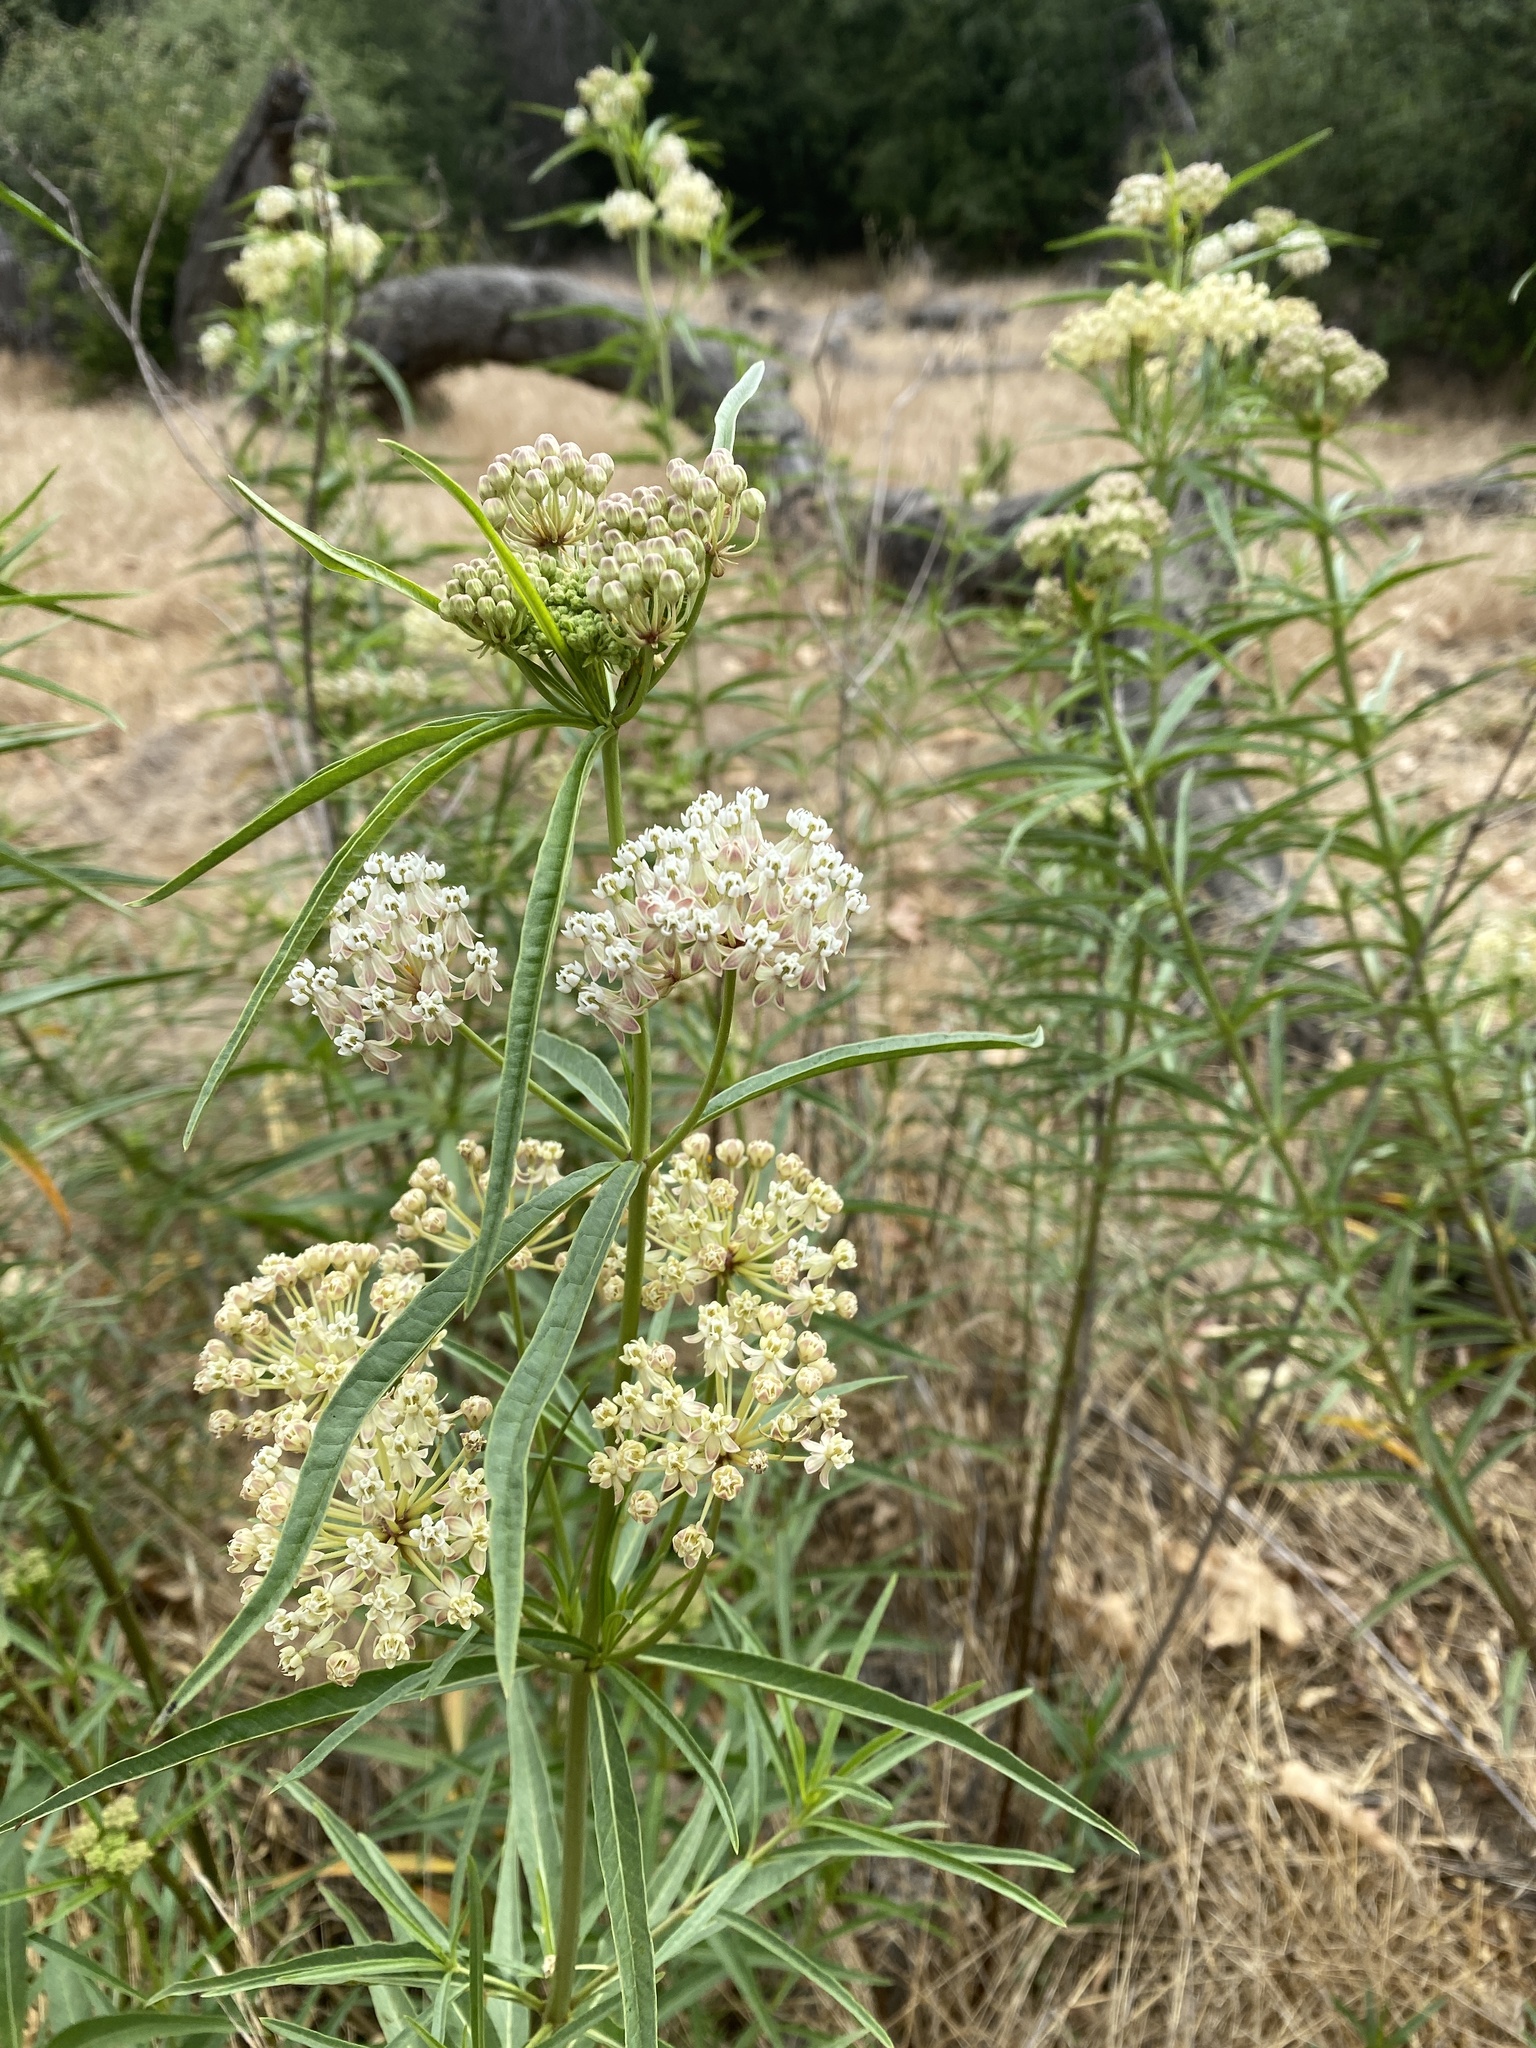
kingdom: Plantae
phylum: Tracheophyta
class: Magnoliopsida
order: Gentianales
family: Apocynaceae
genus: Asclepias
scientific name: Asclepias fascicularis
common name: Mexican milkweed
